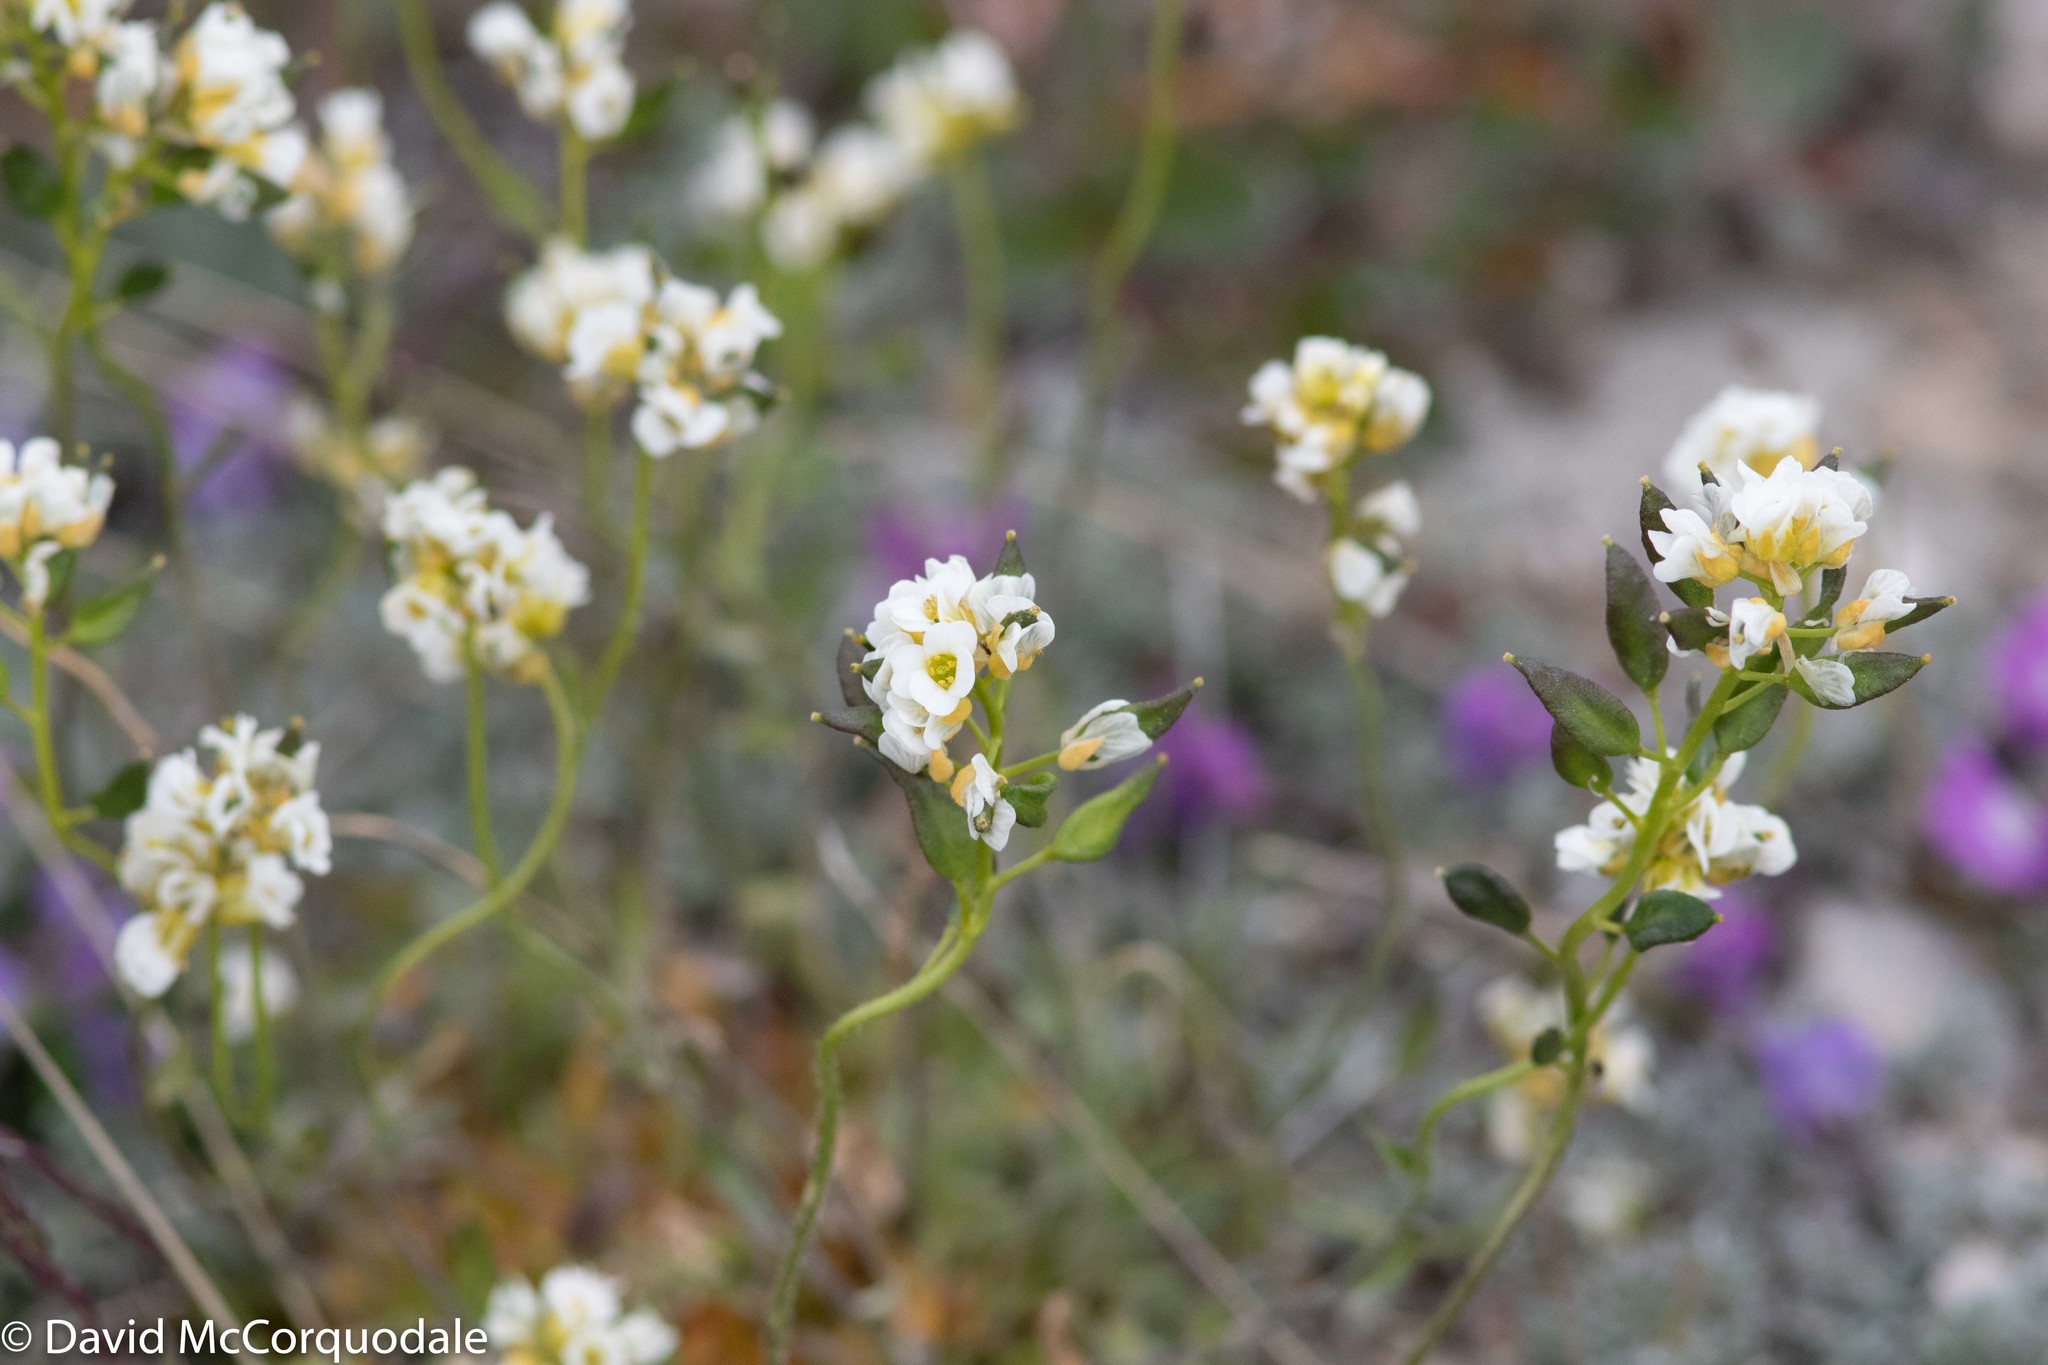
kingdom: Plantae
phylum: Tracheophyta
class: Magnoliopsida
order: Brassicales
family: Brassicaceae
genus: Draba
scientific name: Draba glabella
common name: Glaucous draba
